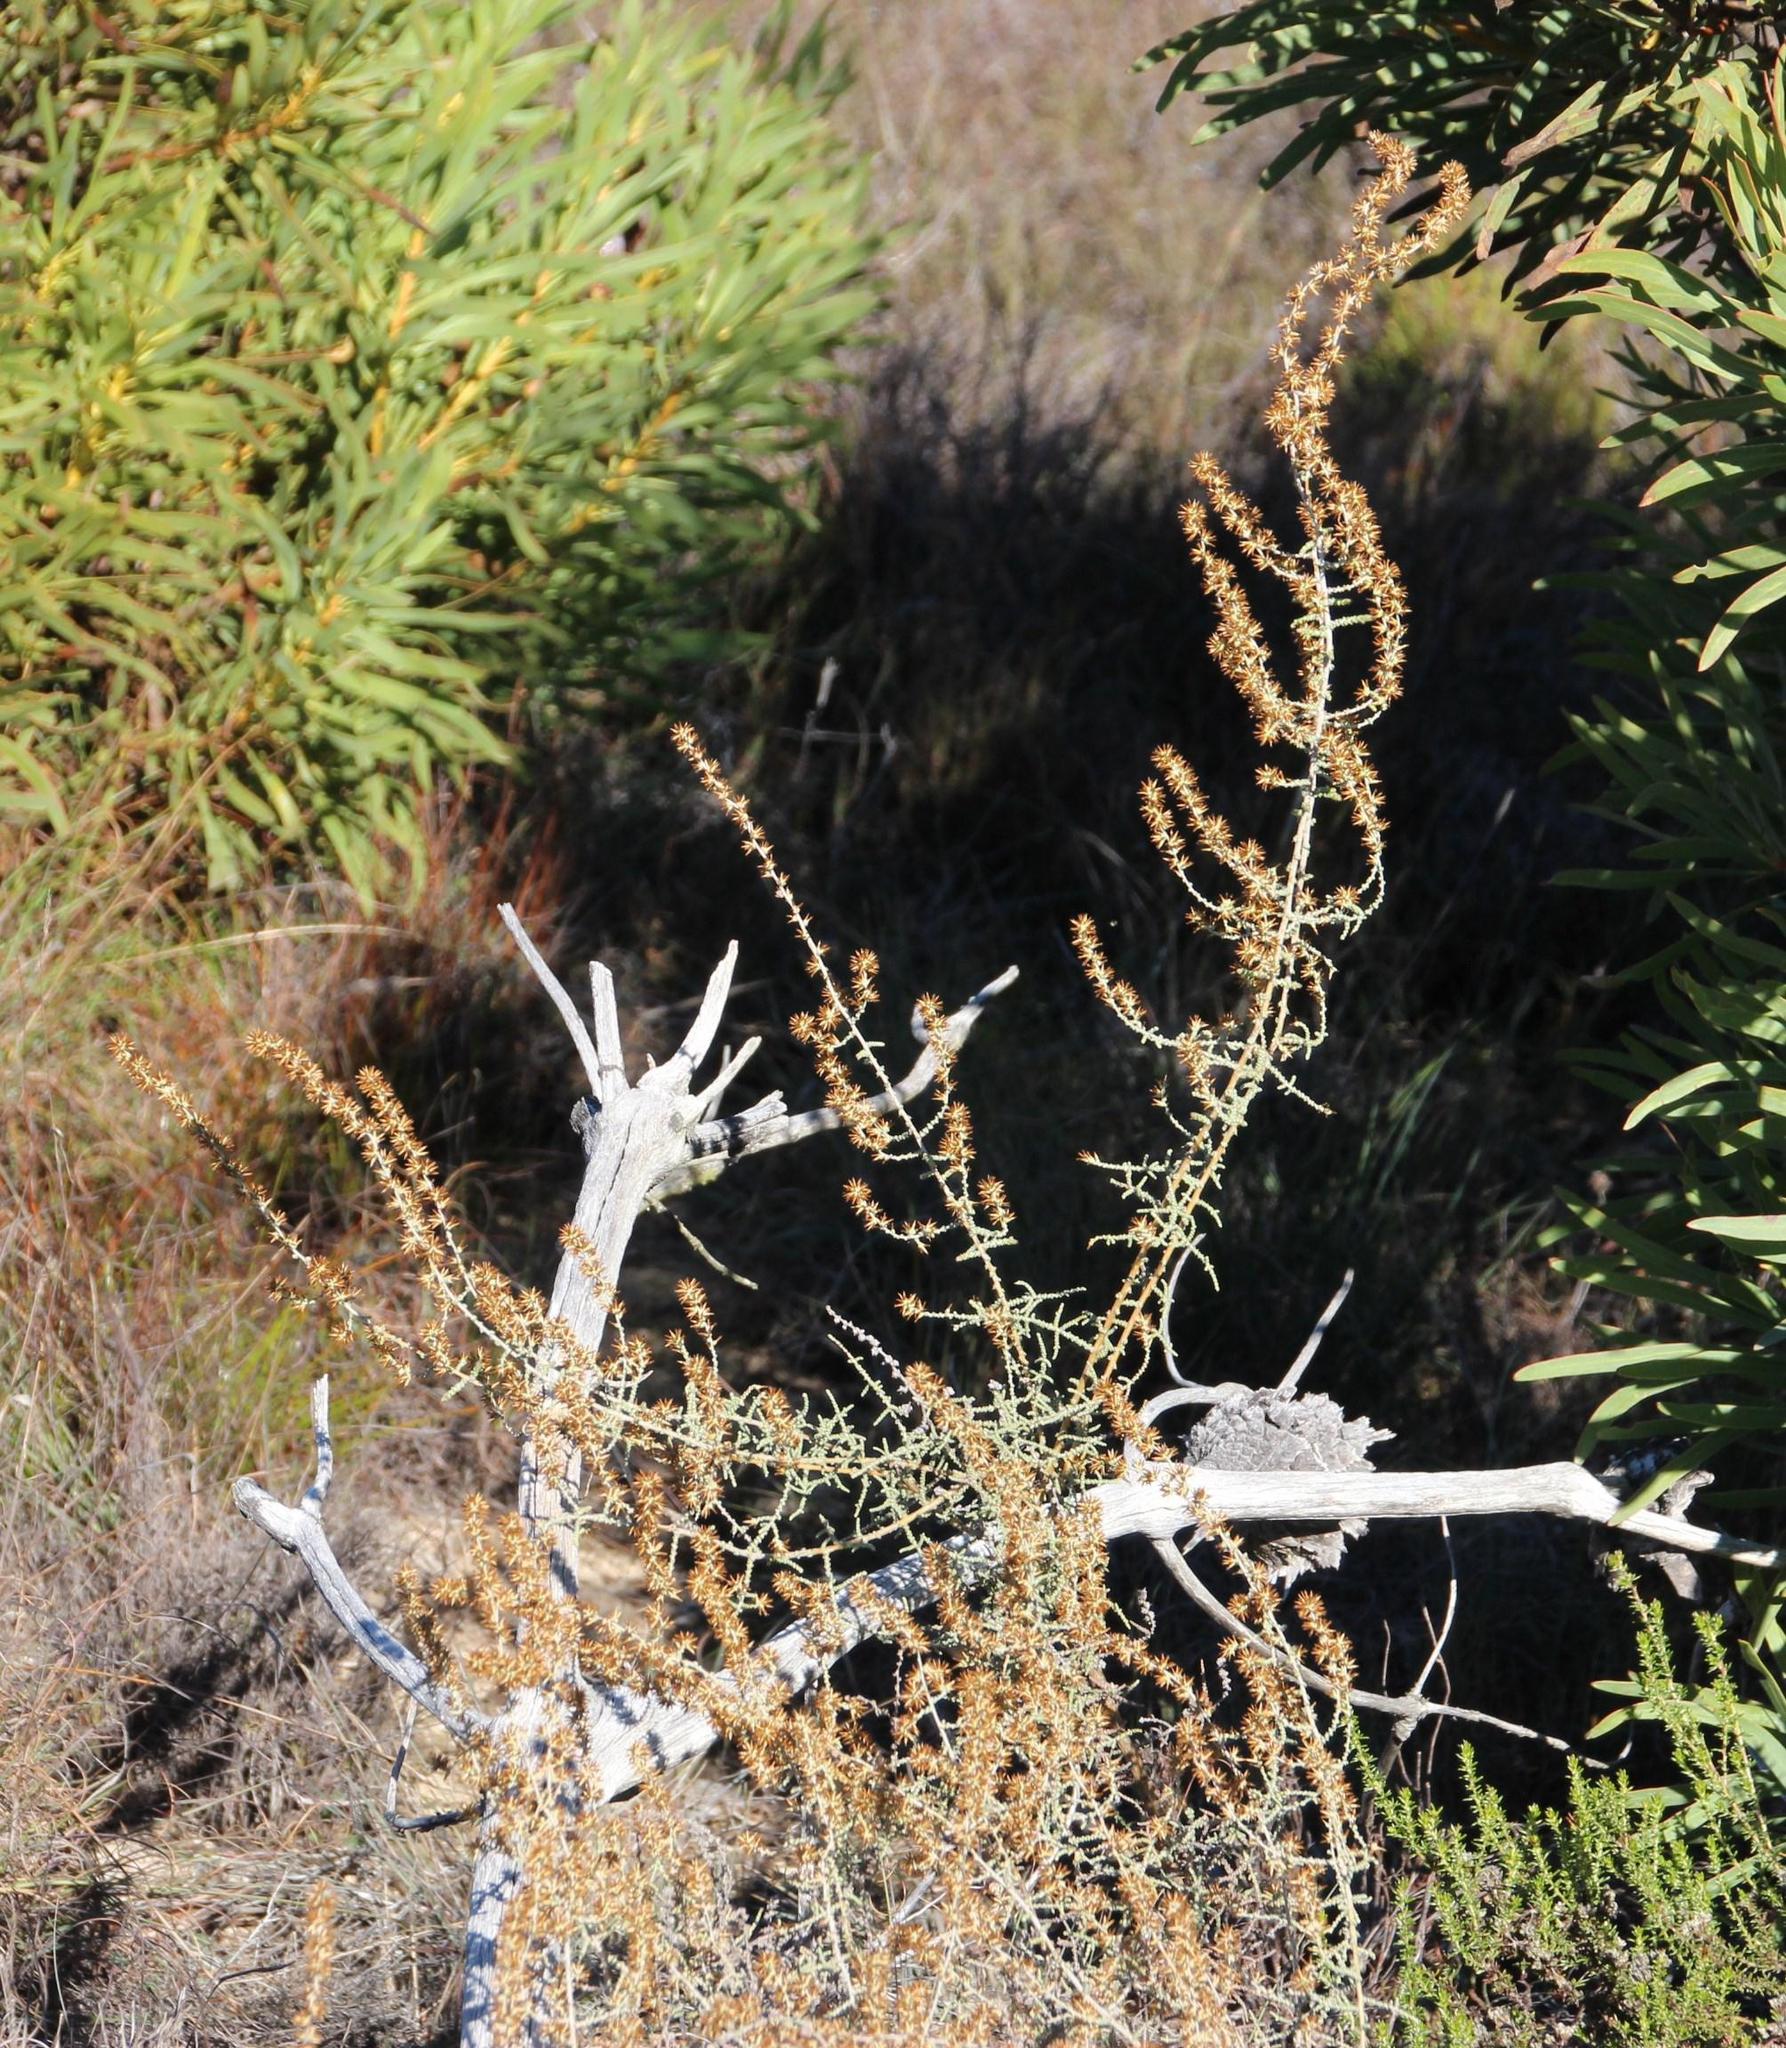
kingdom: Plantae
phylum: Tracheophyta
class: Magnoliopsida
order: Asterales
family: Asteraceae
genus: Seriphium
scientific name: Seriphium plumosum
